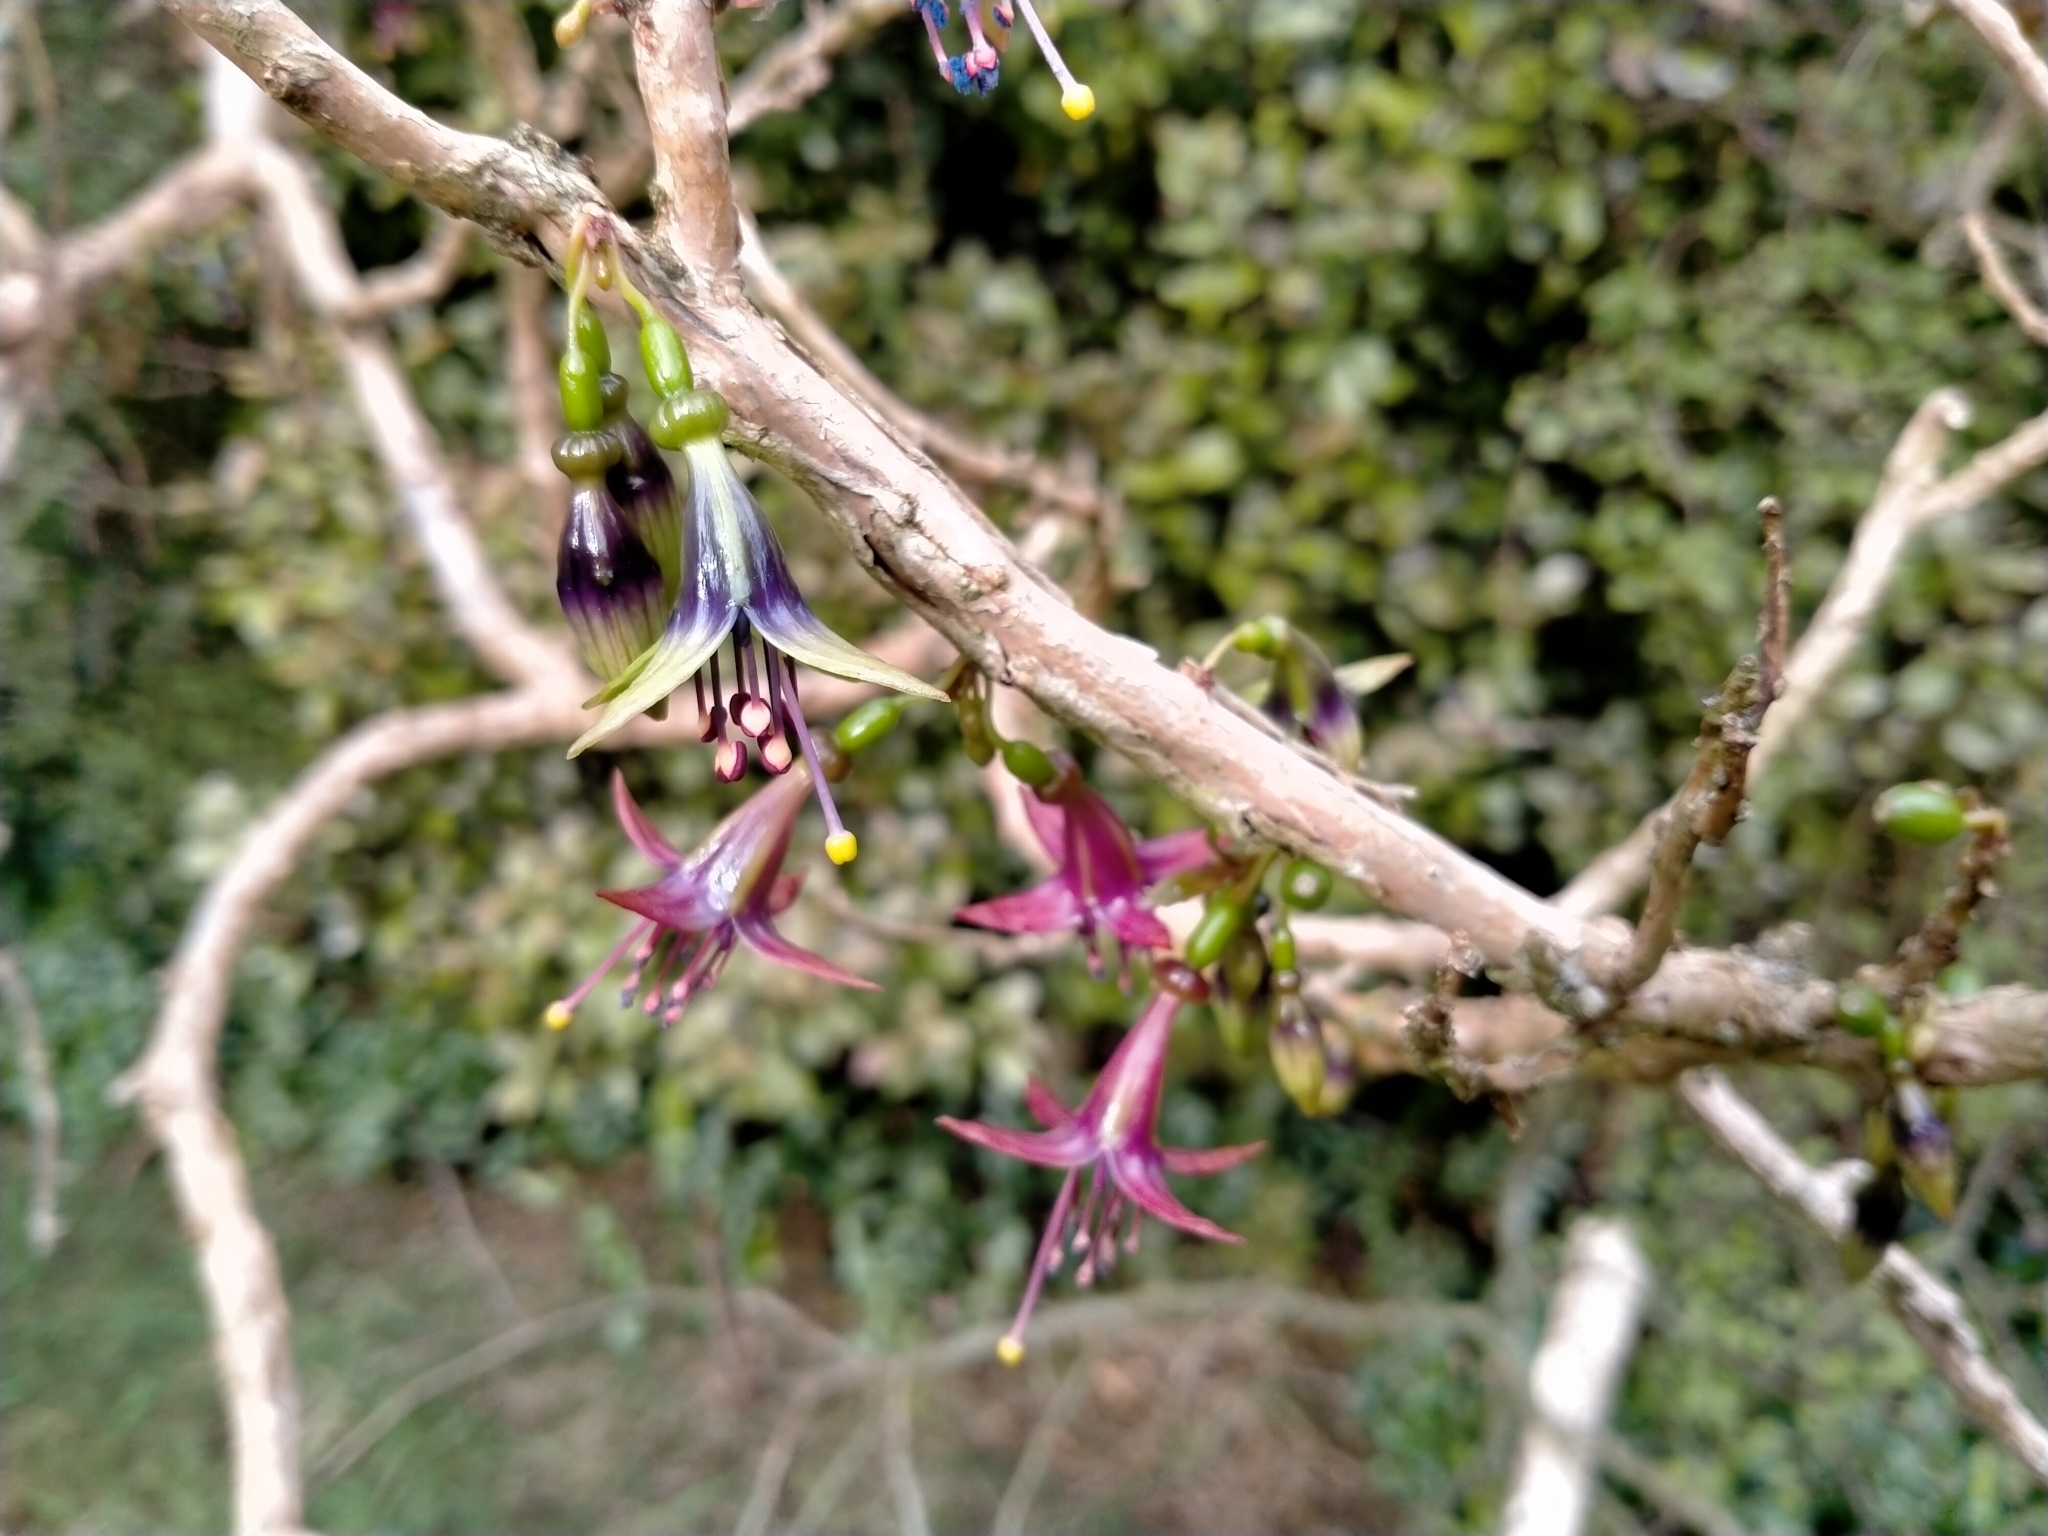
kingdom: Plantae
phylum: Tracheophyta
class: Magnoliopsida
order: Myrtales
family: Onagraceae
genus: Fuchsia
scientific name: Fuchsia excorticata
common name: Tree fuchsia
